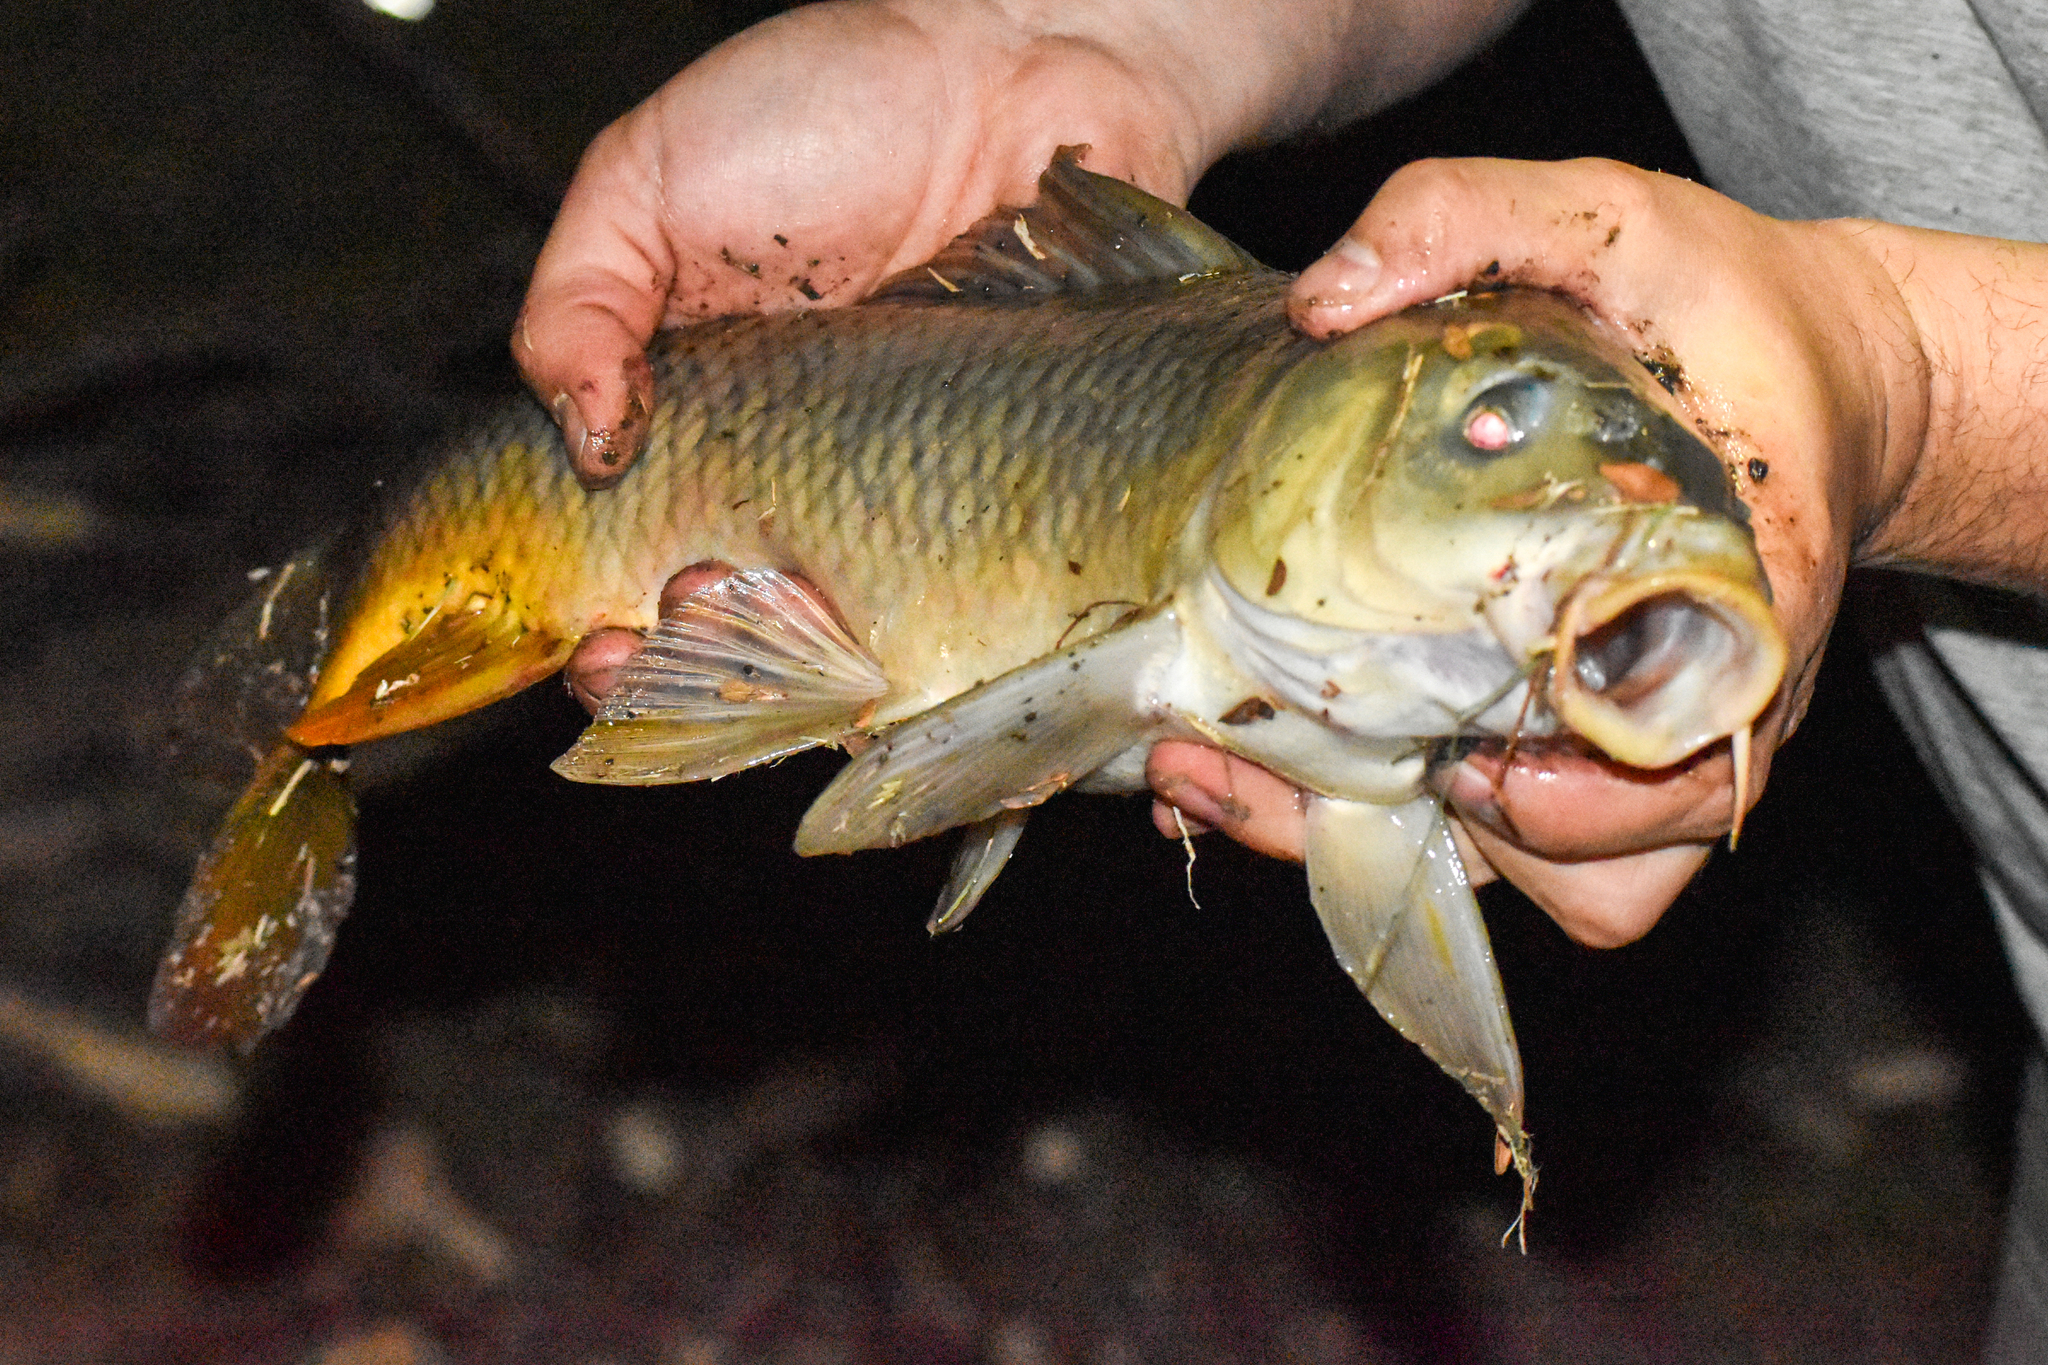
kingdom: Animalia
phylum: Chordata
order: Cypriniformes
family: Cyprinidae
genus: Cyprinus
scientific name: Cyprinus carpio
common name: Common carp
